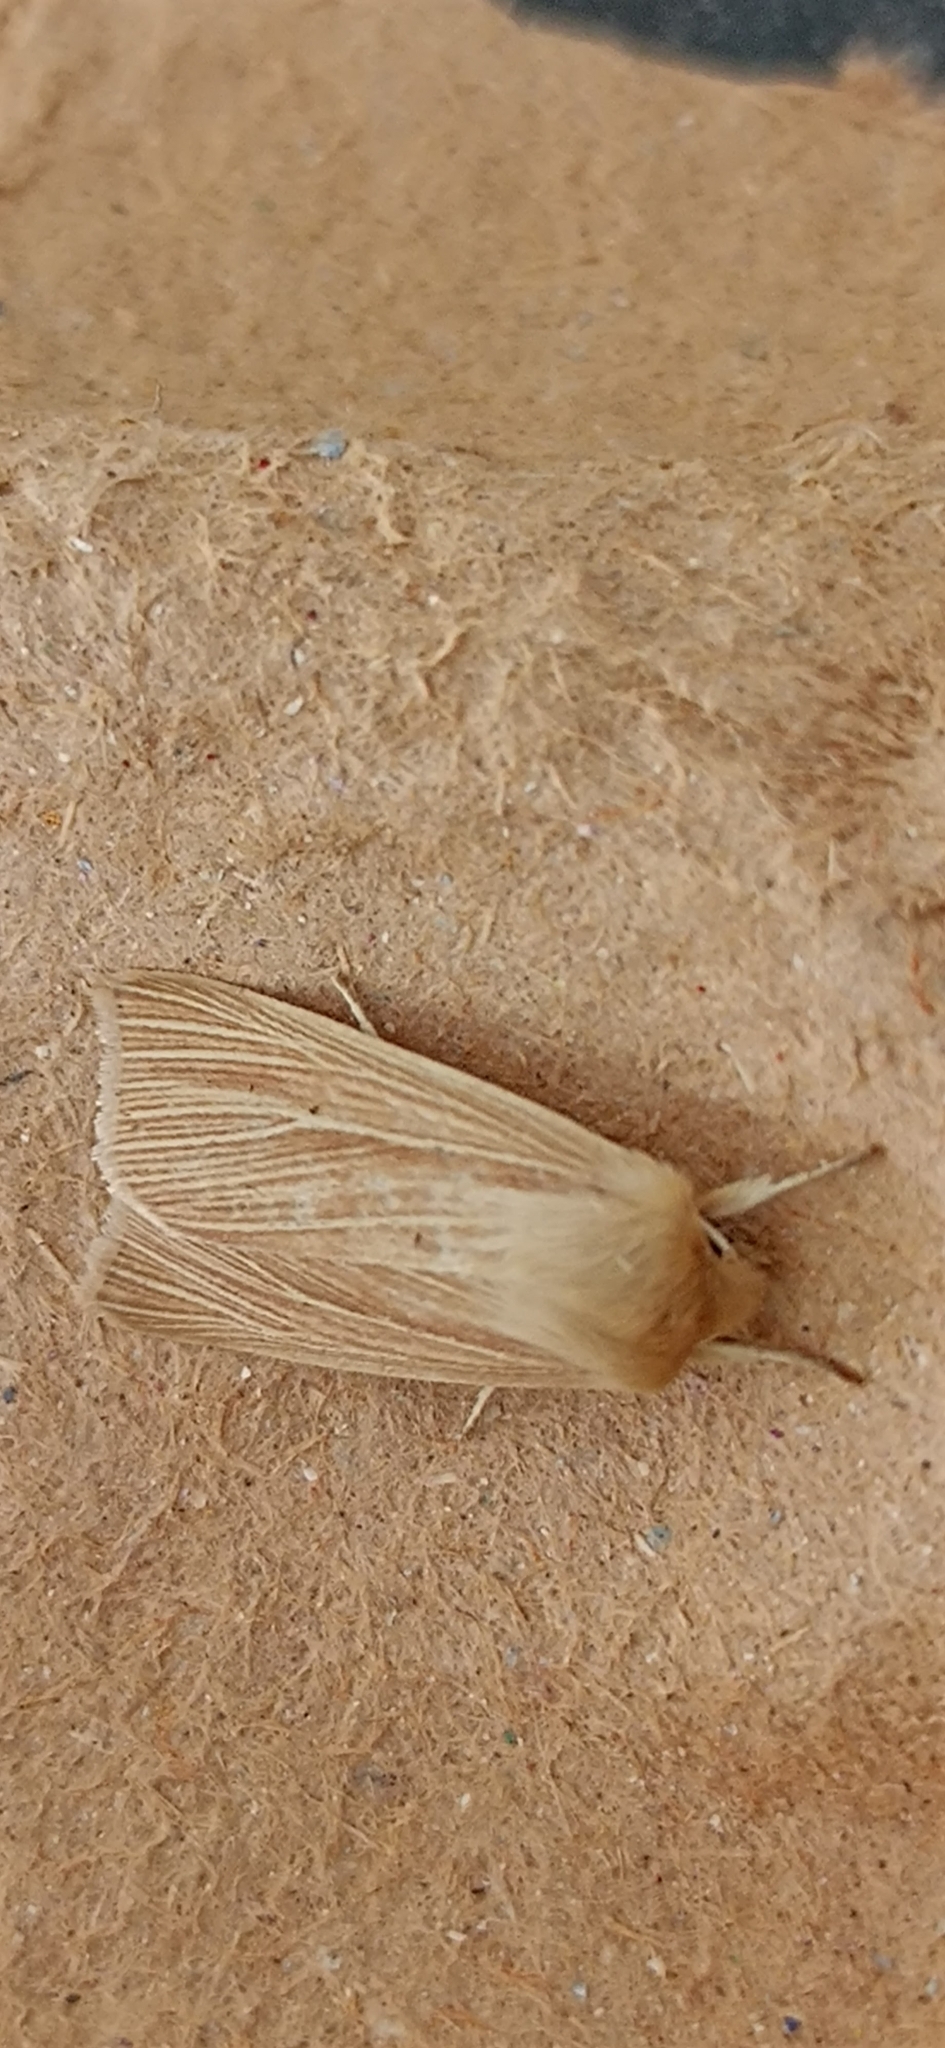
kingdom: Animalia
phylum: Arthropoda
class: Insecta
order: Lepidoptera
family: Noctuidae
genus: Mythimna
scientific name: Mythimna pallens
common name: Common wainscot
